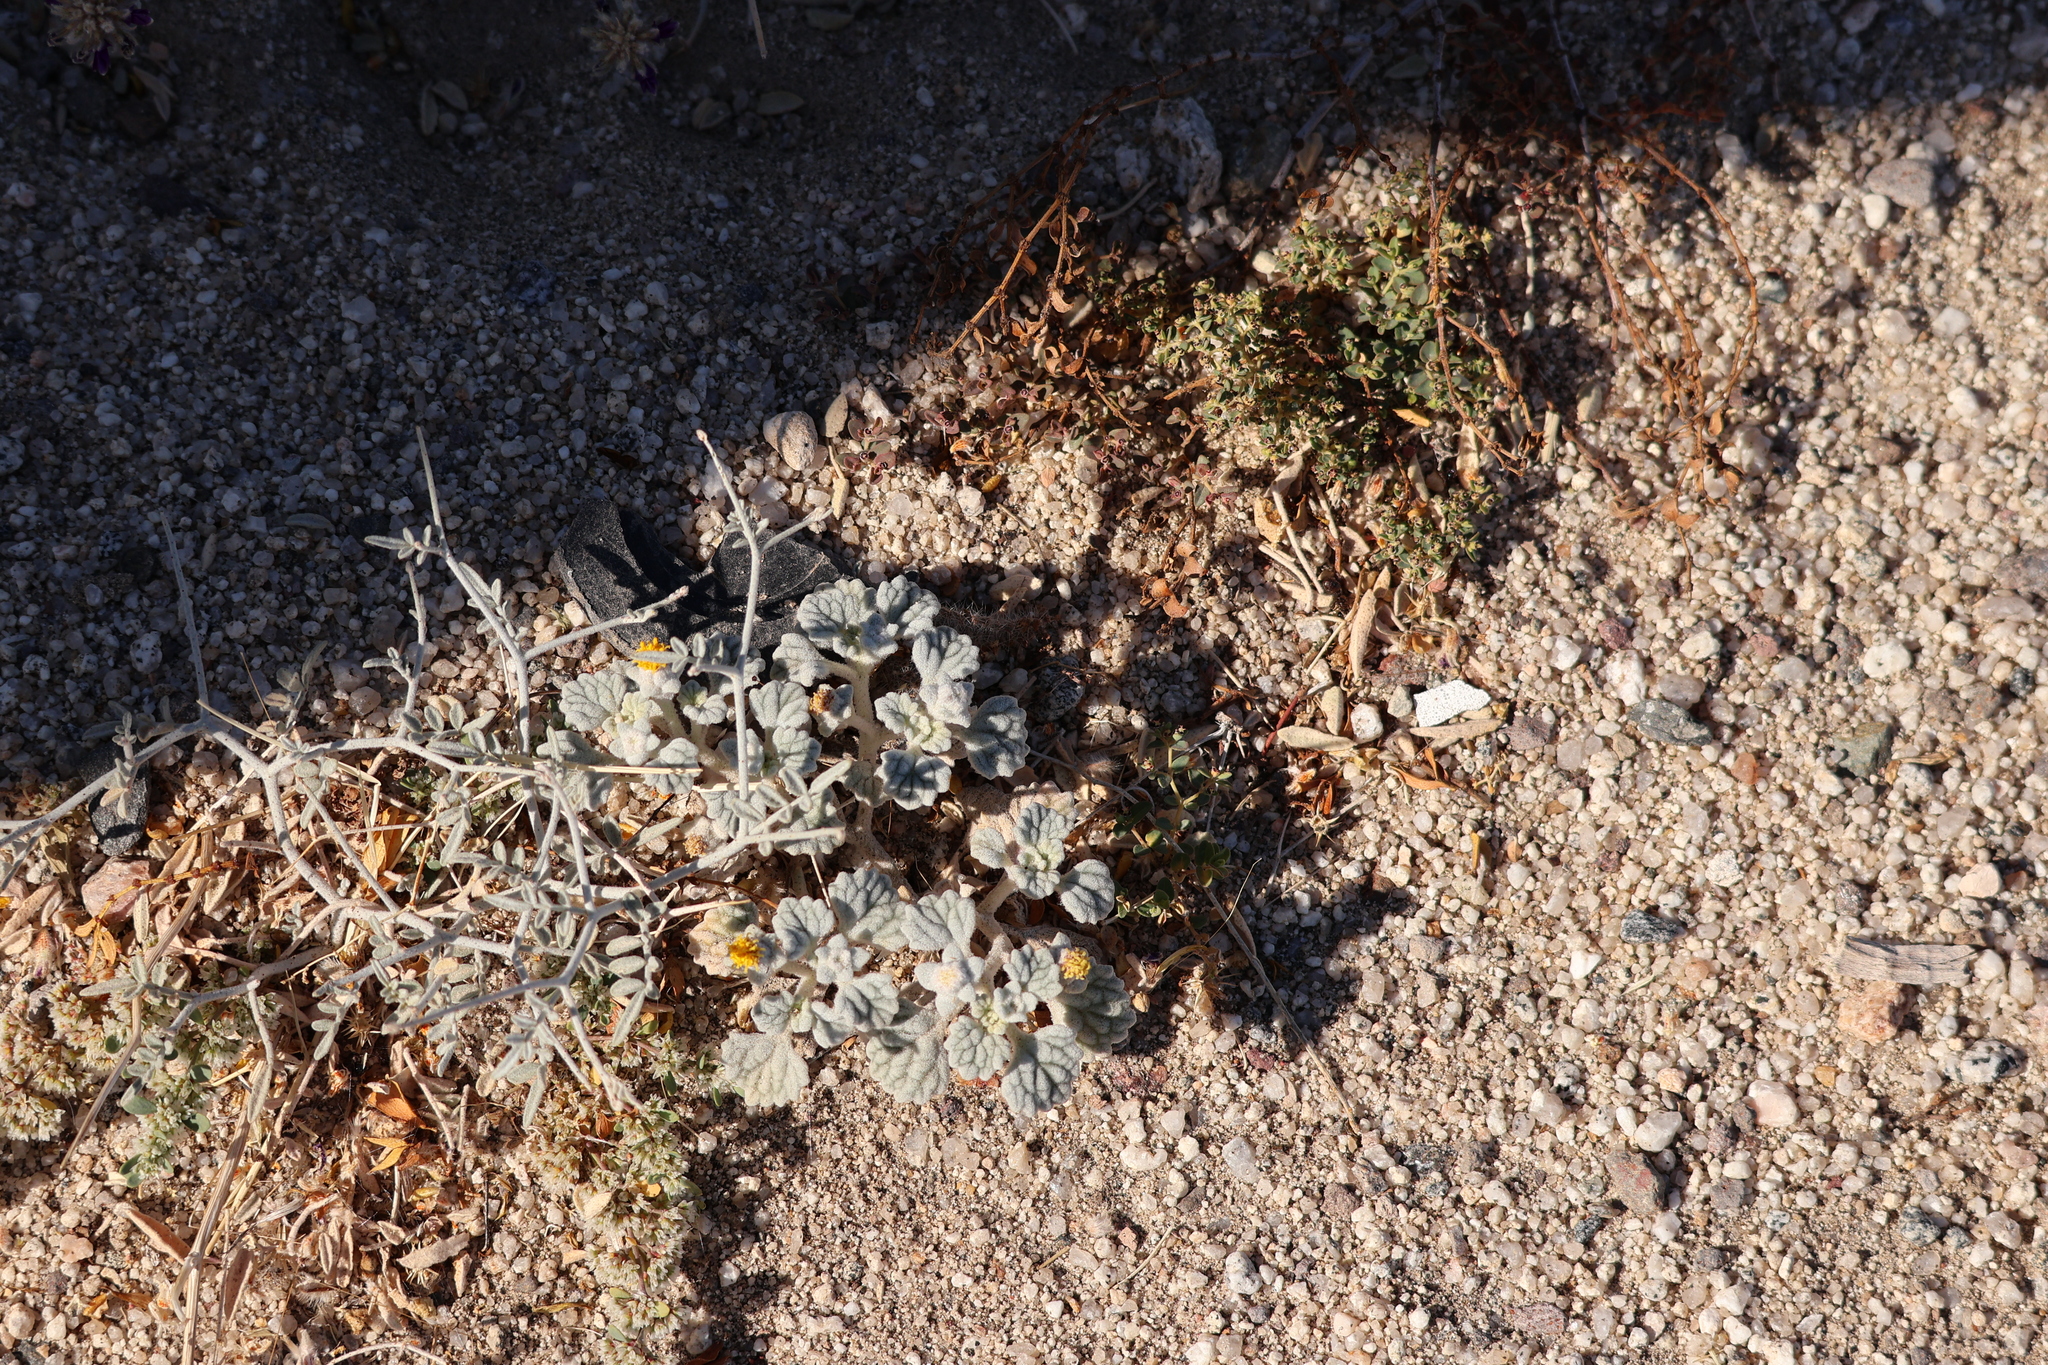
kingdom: Plantae
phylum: Tracheophyta
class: Magnoliopsida
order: Asterales
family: Asteraceae
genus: Psathyrotes
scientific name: Psathyrotes ramosissima
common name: Turtleback
